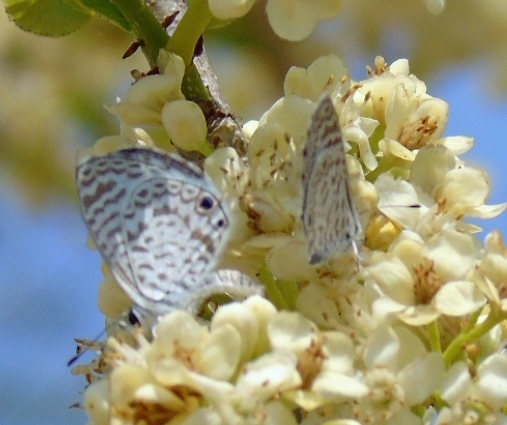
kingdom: Animalia
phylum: Arthropoda
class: Insecta
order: Lepidoptera
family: Lycaenidae
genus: Leptotes
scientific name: Leptotes cassius
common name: Cassius blue
